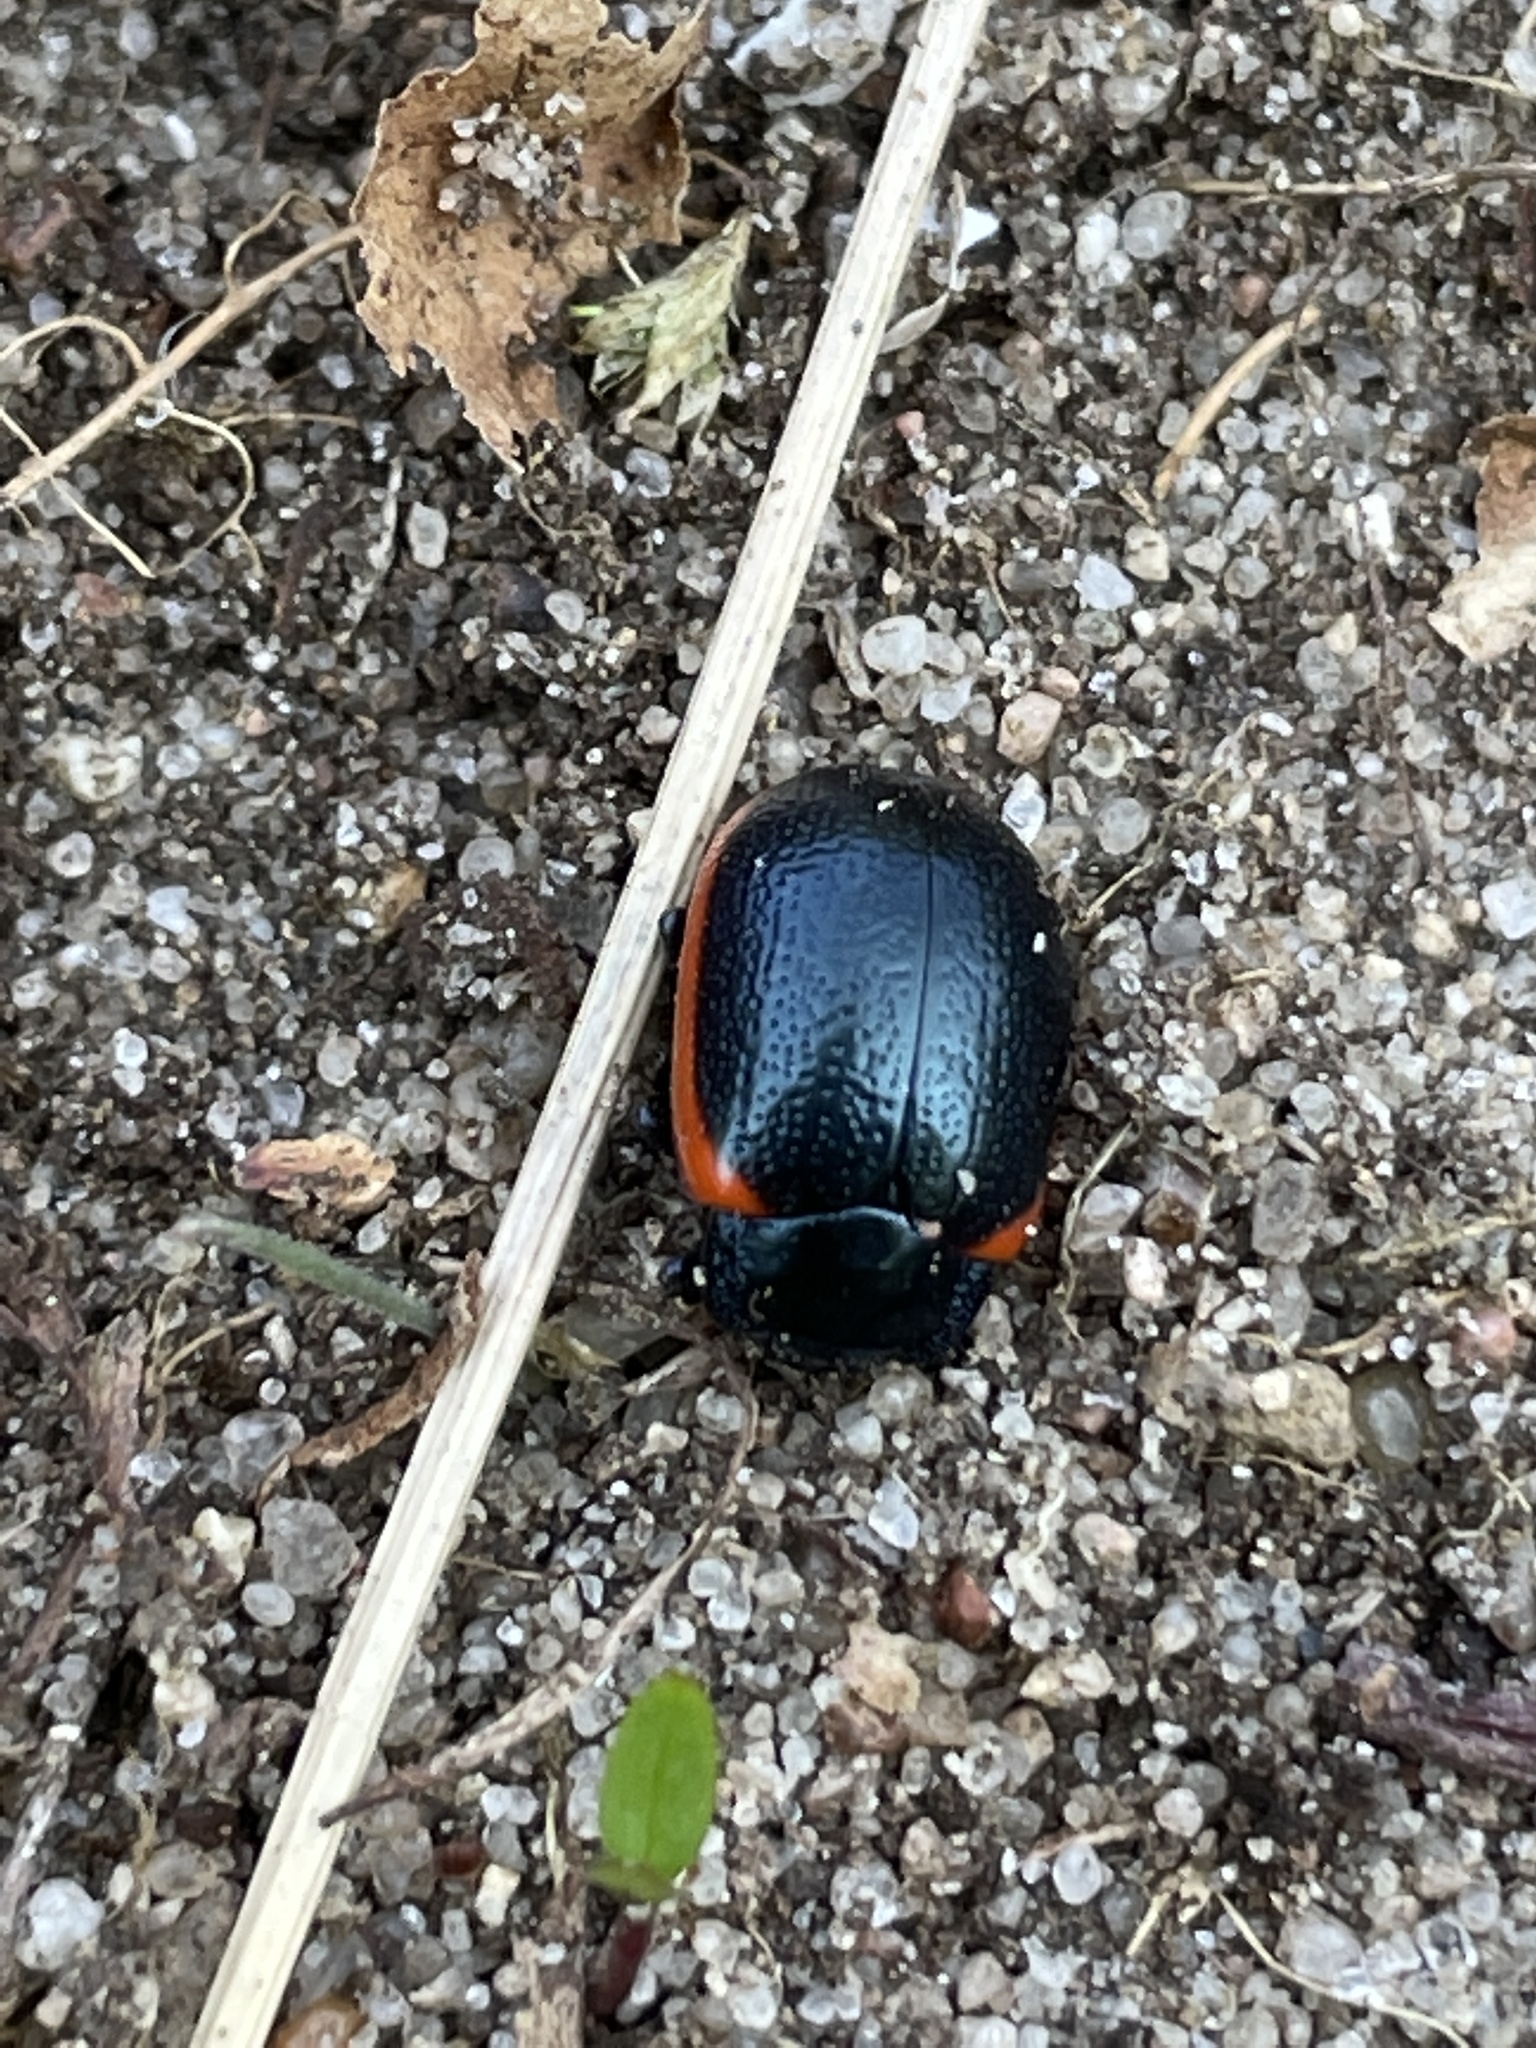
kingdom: Animalia
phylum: Arthropoda
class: Insecta
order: Coleoptera
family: Chrysomelidae
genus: Chrysolina
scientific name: Chrysolina sanguinolenta
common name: Toadflax leaf beetle
